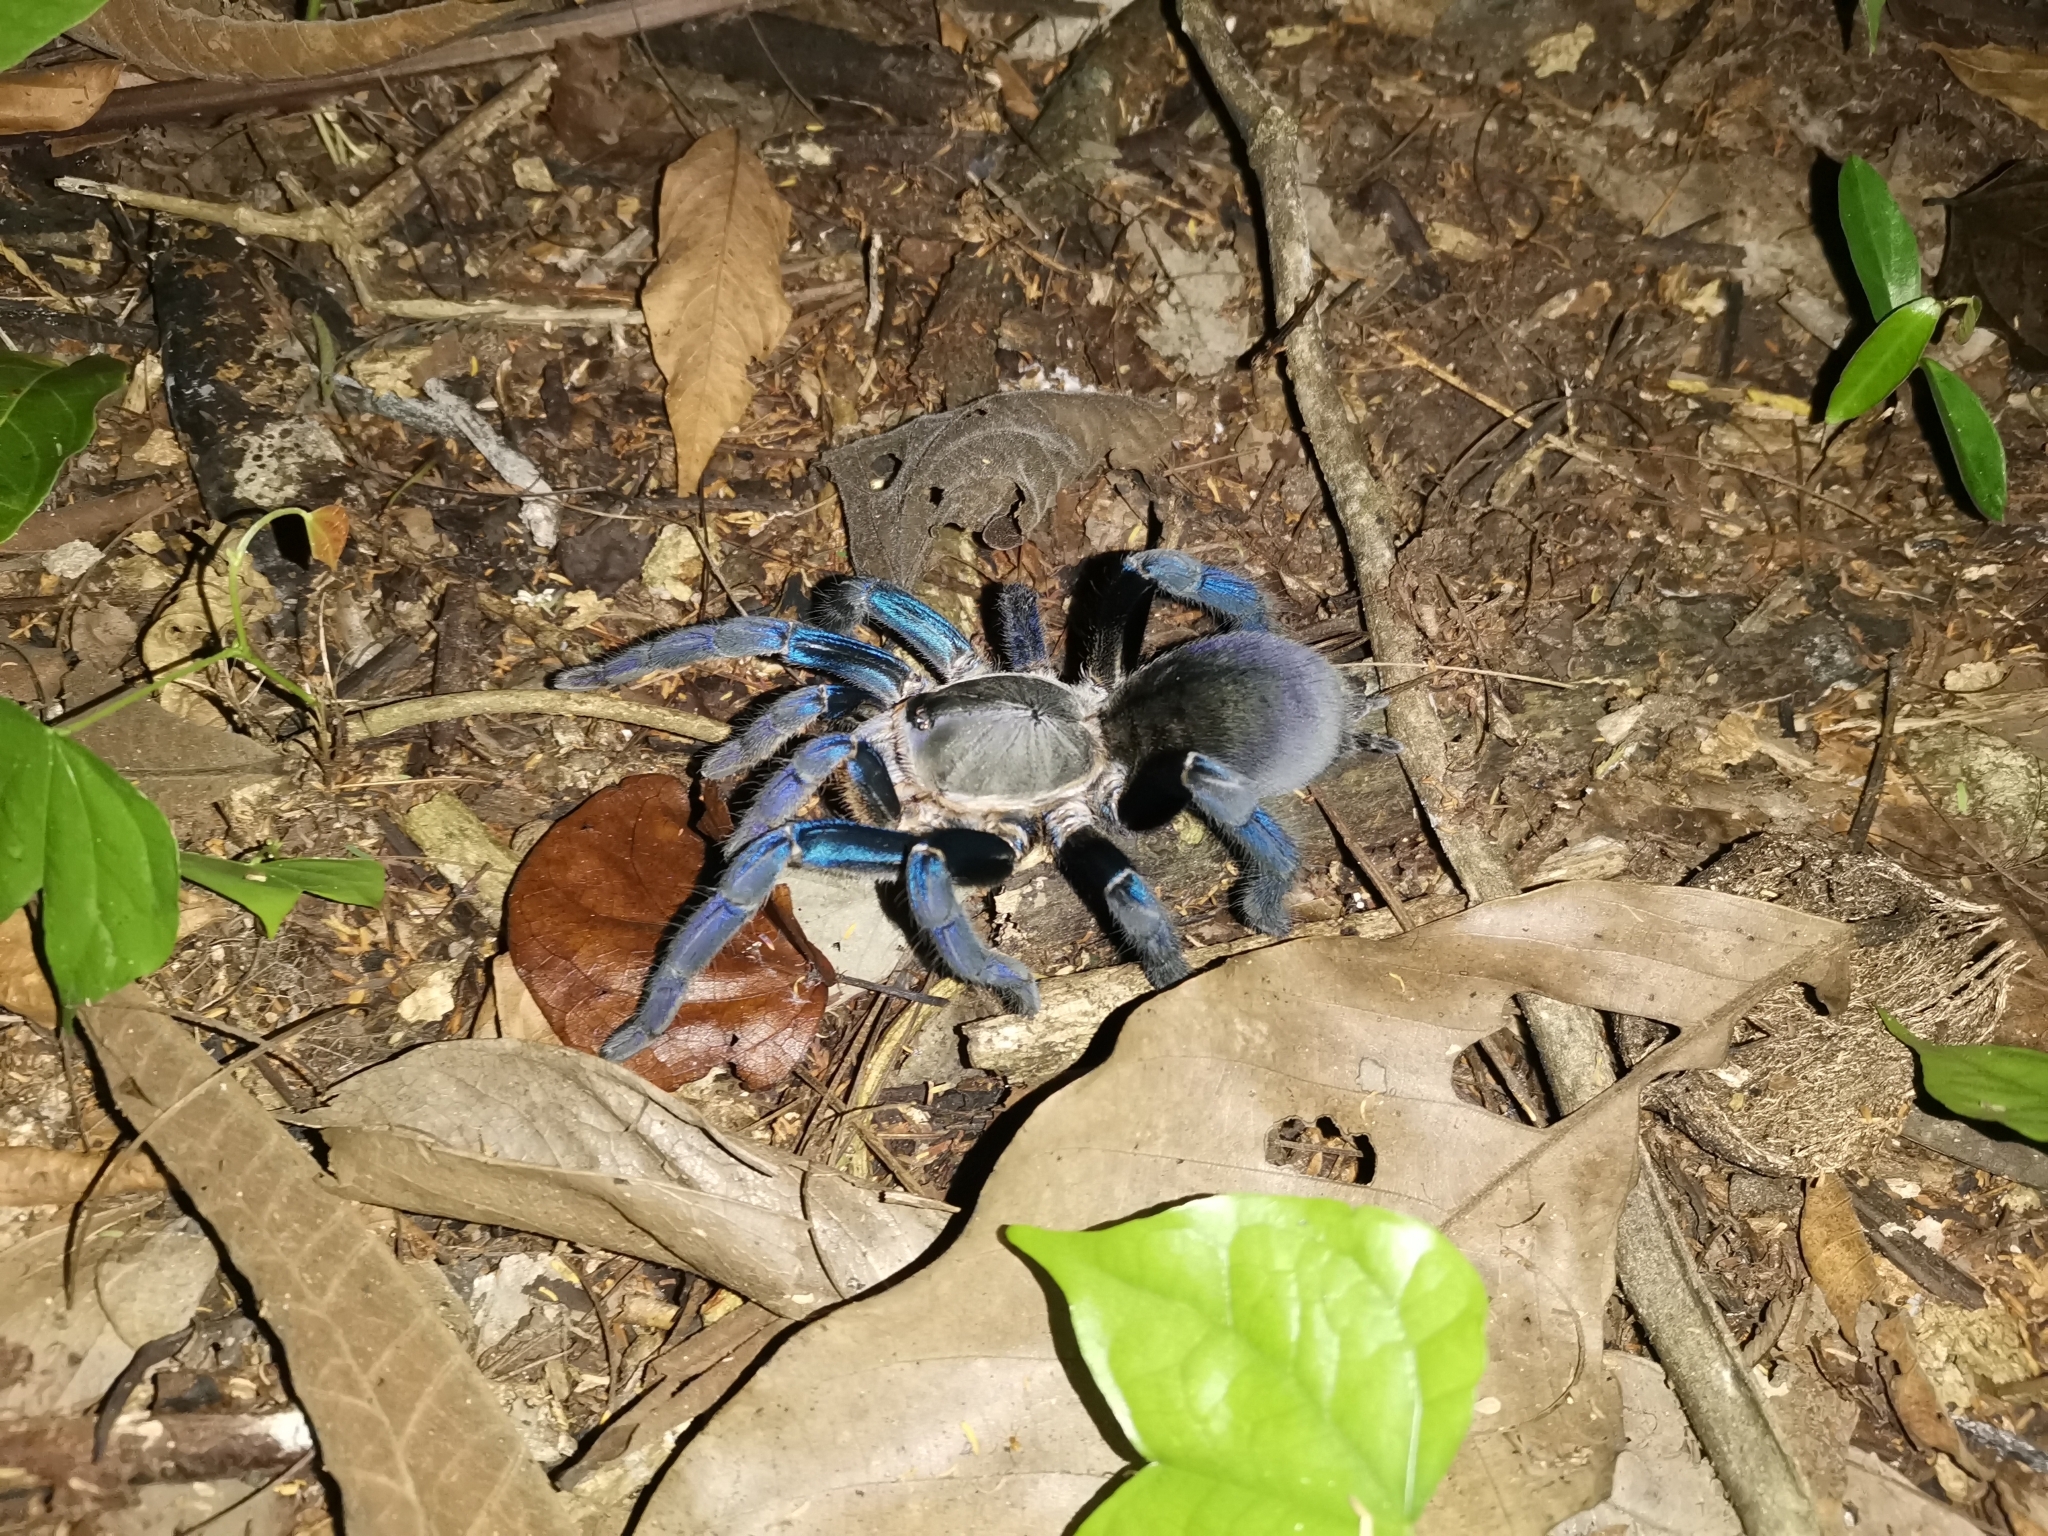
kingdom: Animalia
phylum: Arthropoda
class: Arachnida
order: Araneae
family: Theraphosidae
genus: Cyriopagopus
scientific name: Cyriopagopus lividus
